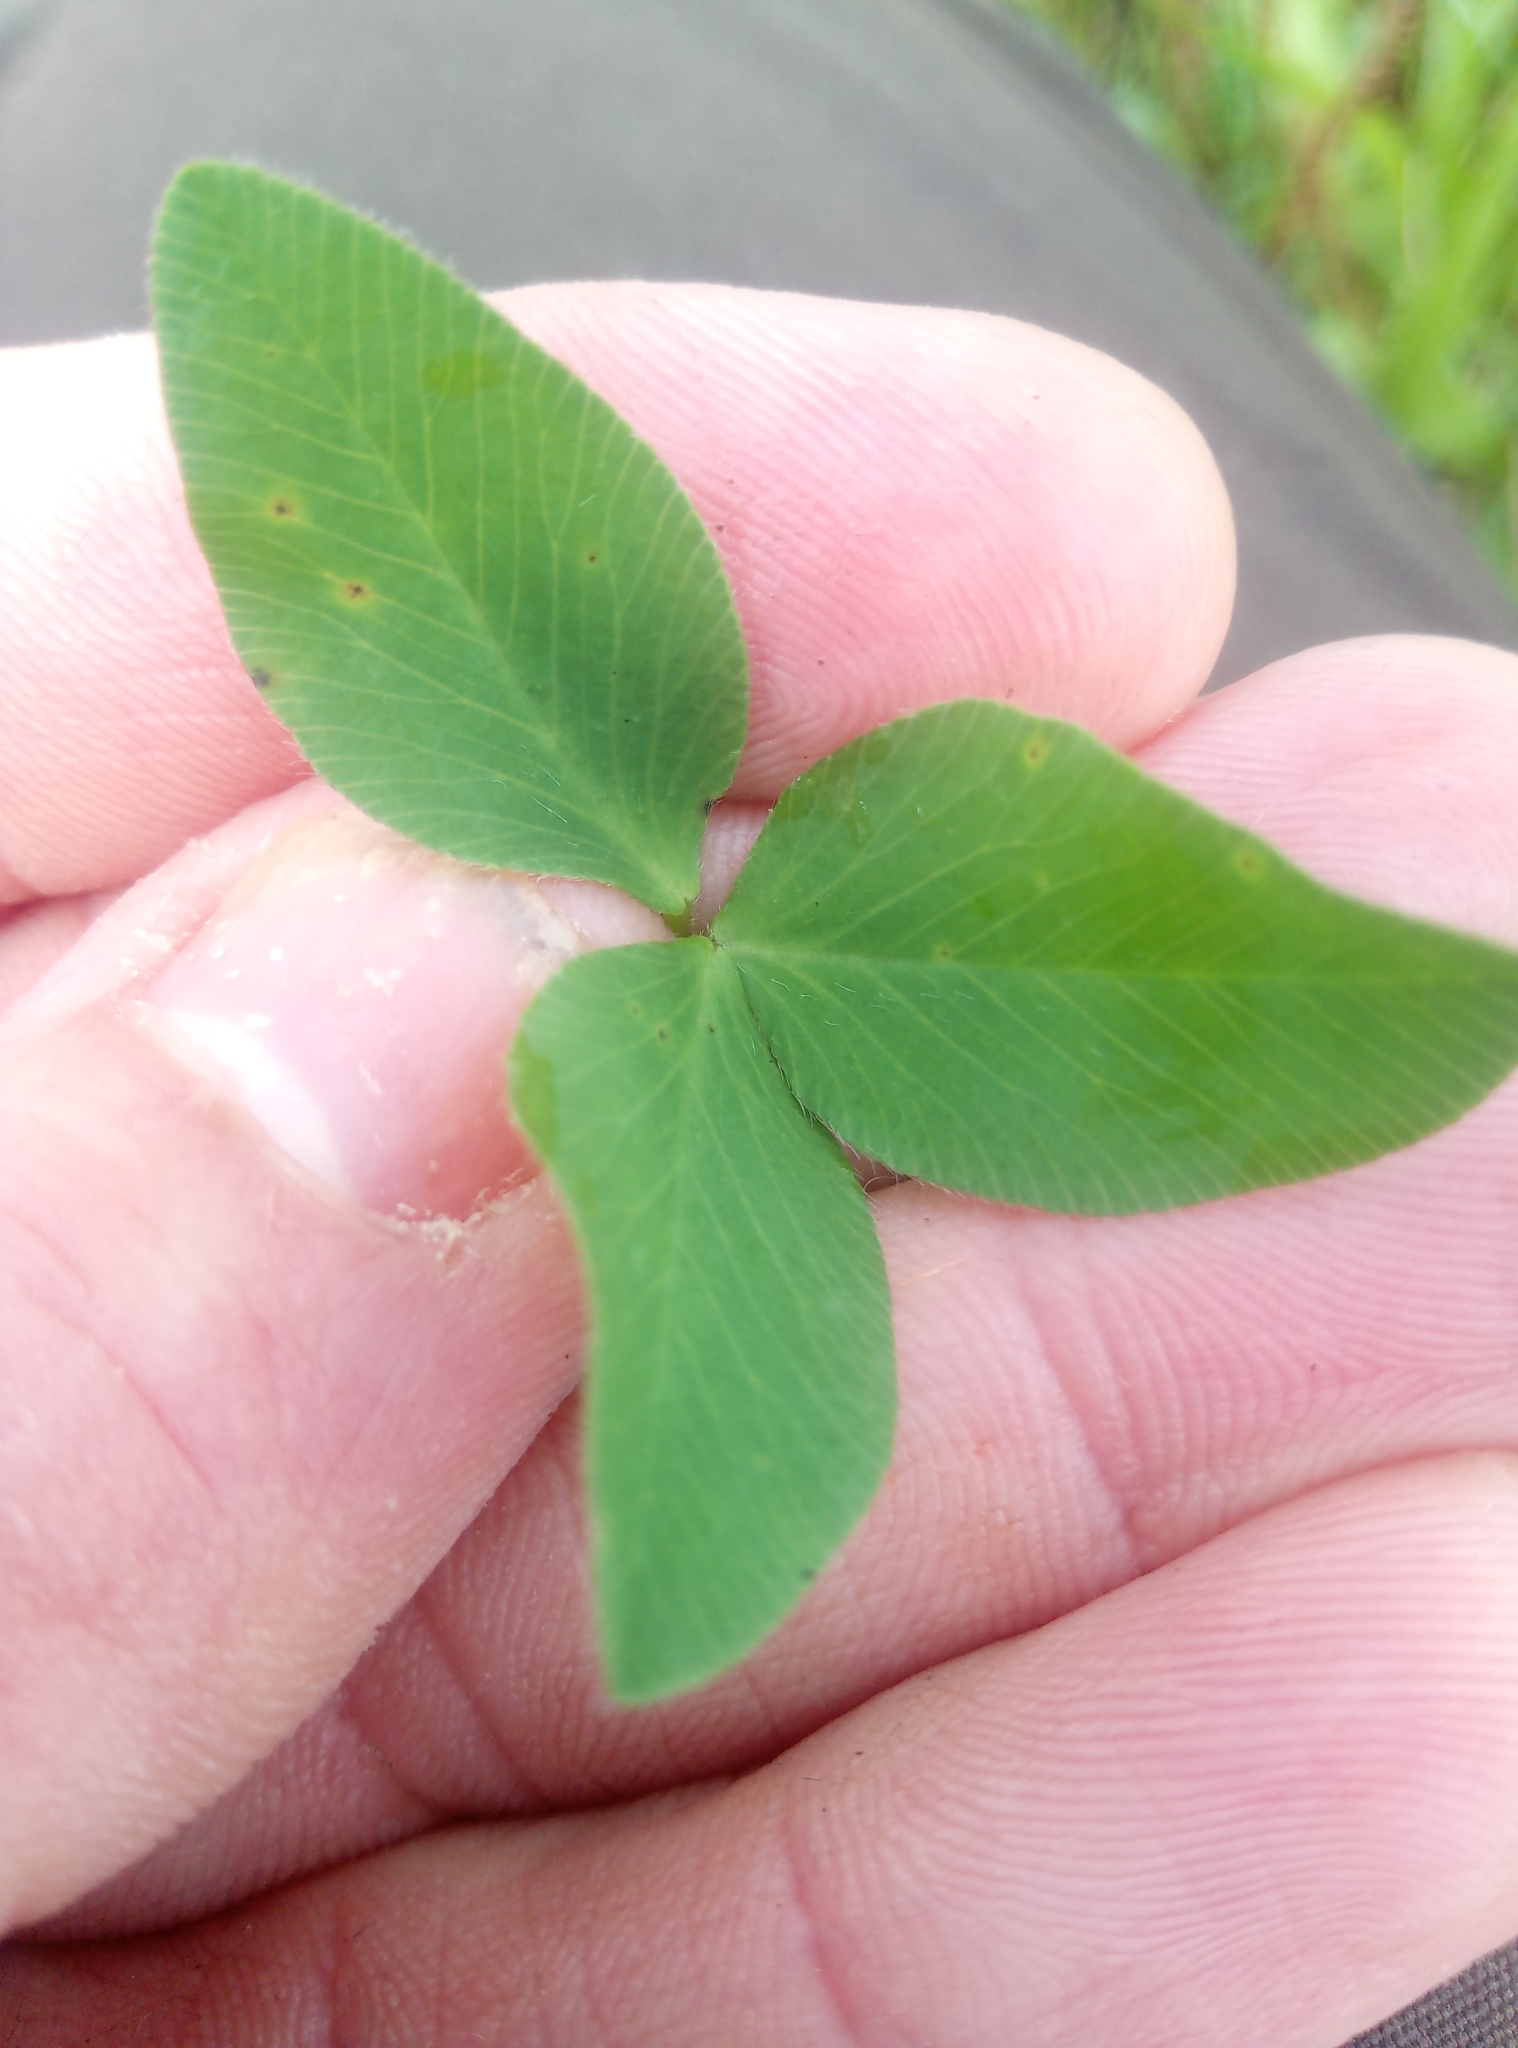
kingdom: Plantae
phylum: Tracheophyta
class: Magnoliopsida
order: Fabales
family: Fabaceae
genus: Trifolium
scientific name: Trifolium pratense
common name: Red clover
